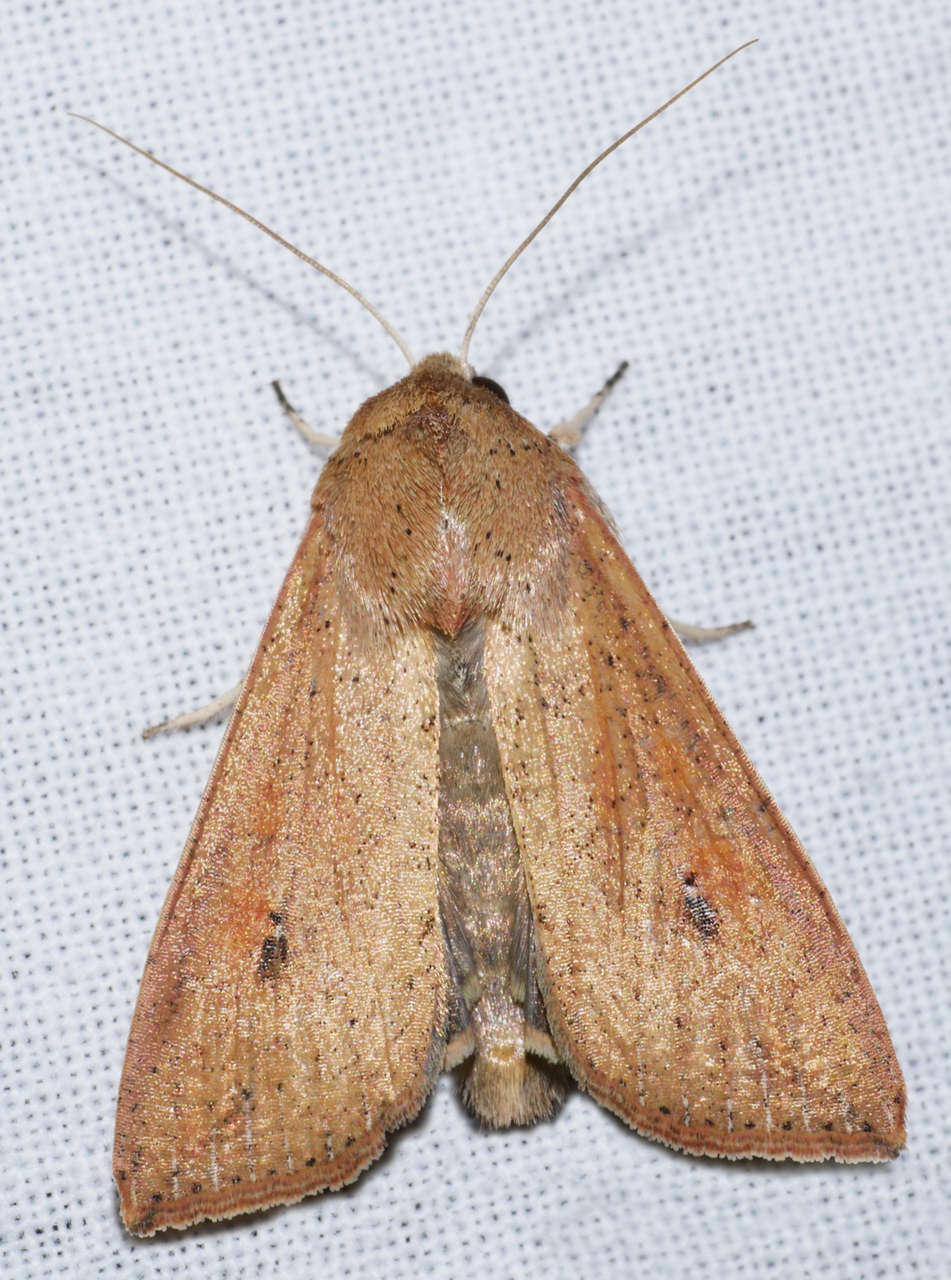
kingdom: Animalia
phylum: Arthropoda
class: Insecta
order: Lepidoptera
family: Noctuidae
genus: Mythimna
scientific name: Mythimna convecta
